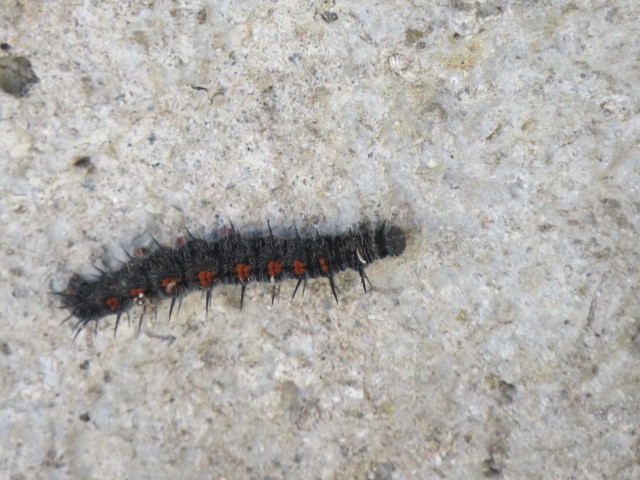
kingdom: Animalia
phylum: Arthropoda
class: Insecta
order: Lepidoptera
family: Nymphalidae
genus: Nymphalis
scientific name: Nymphalis antiopa
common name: Camberwell beauty
